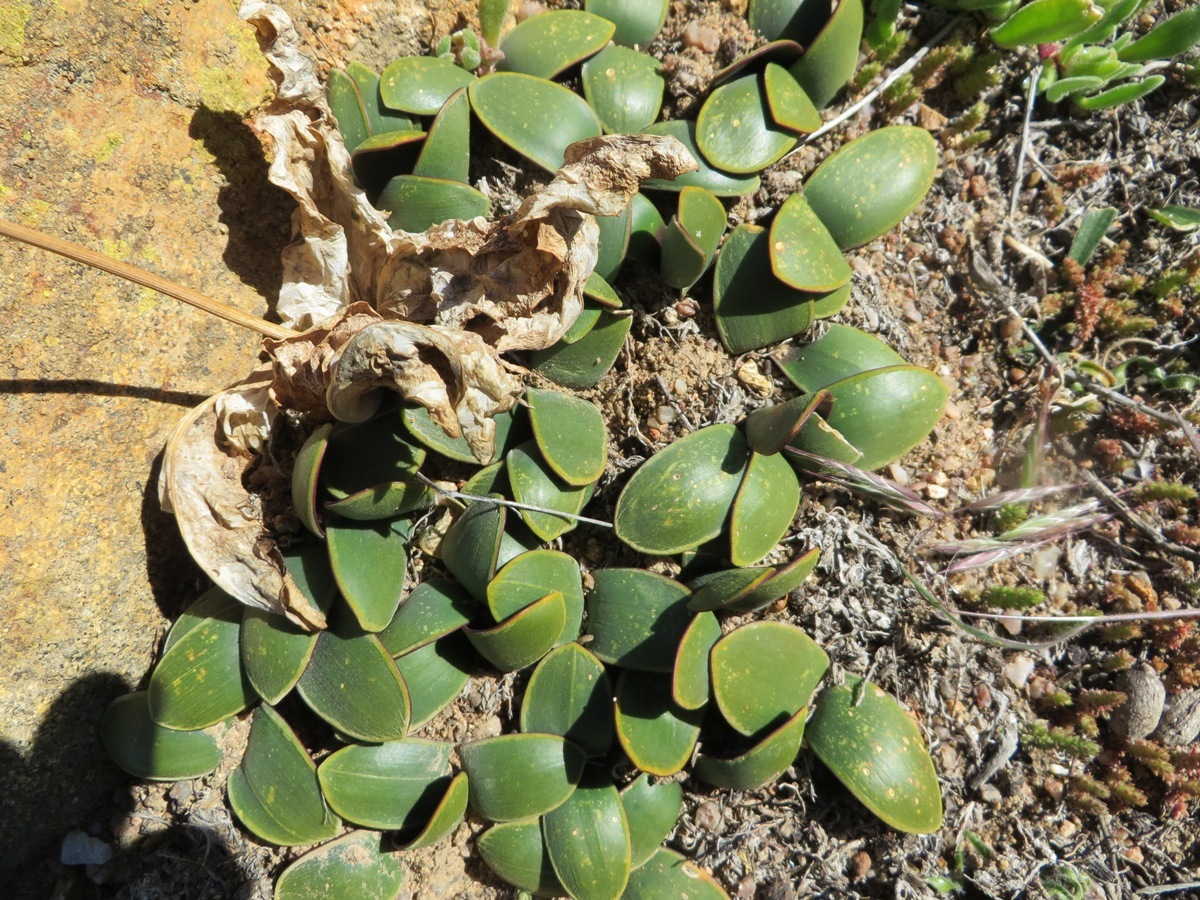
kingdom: Plantae
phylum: Tracheophyta
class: Liliopsida
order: Asparagales
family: Asparagaceae
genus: Austronea
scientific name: Austronea pulchromarginata
